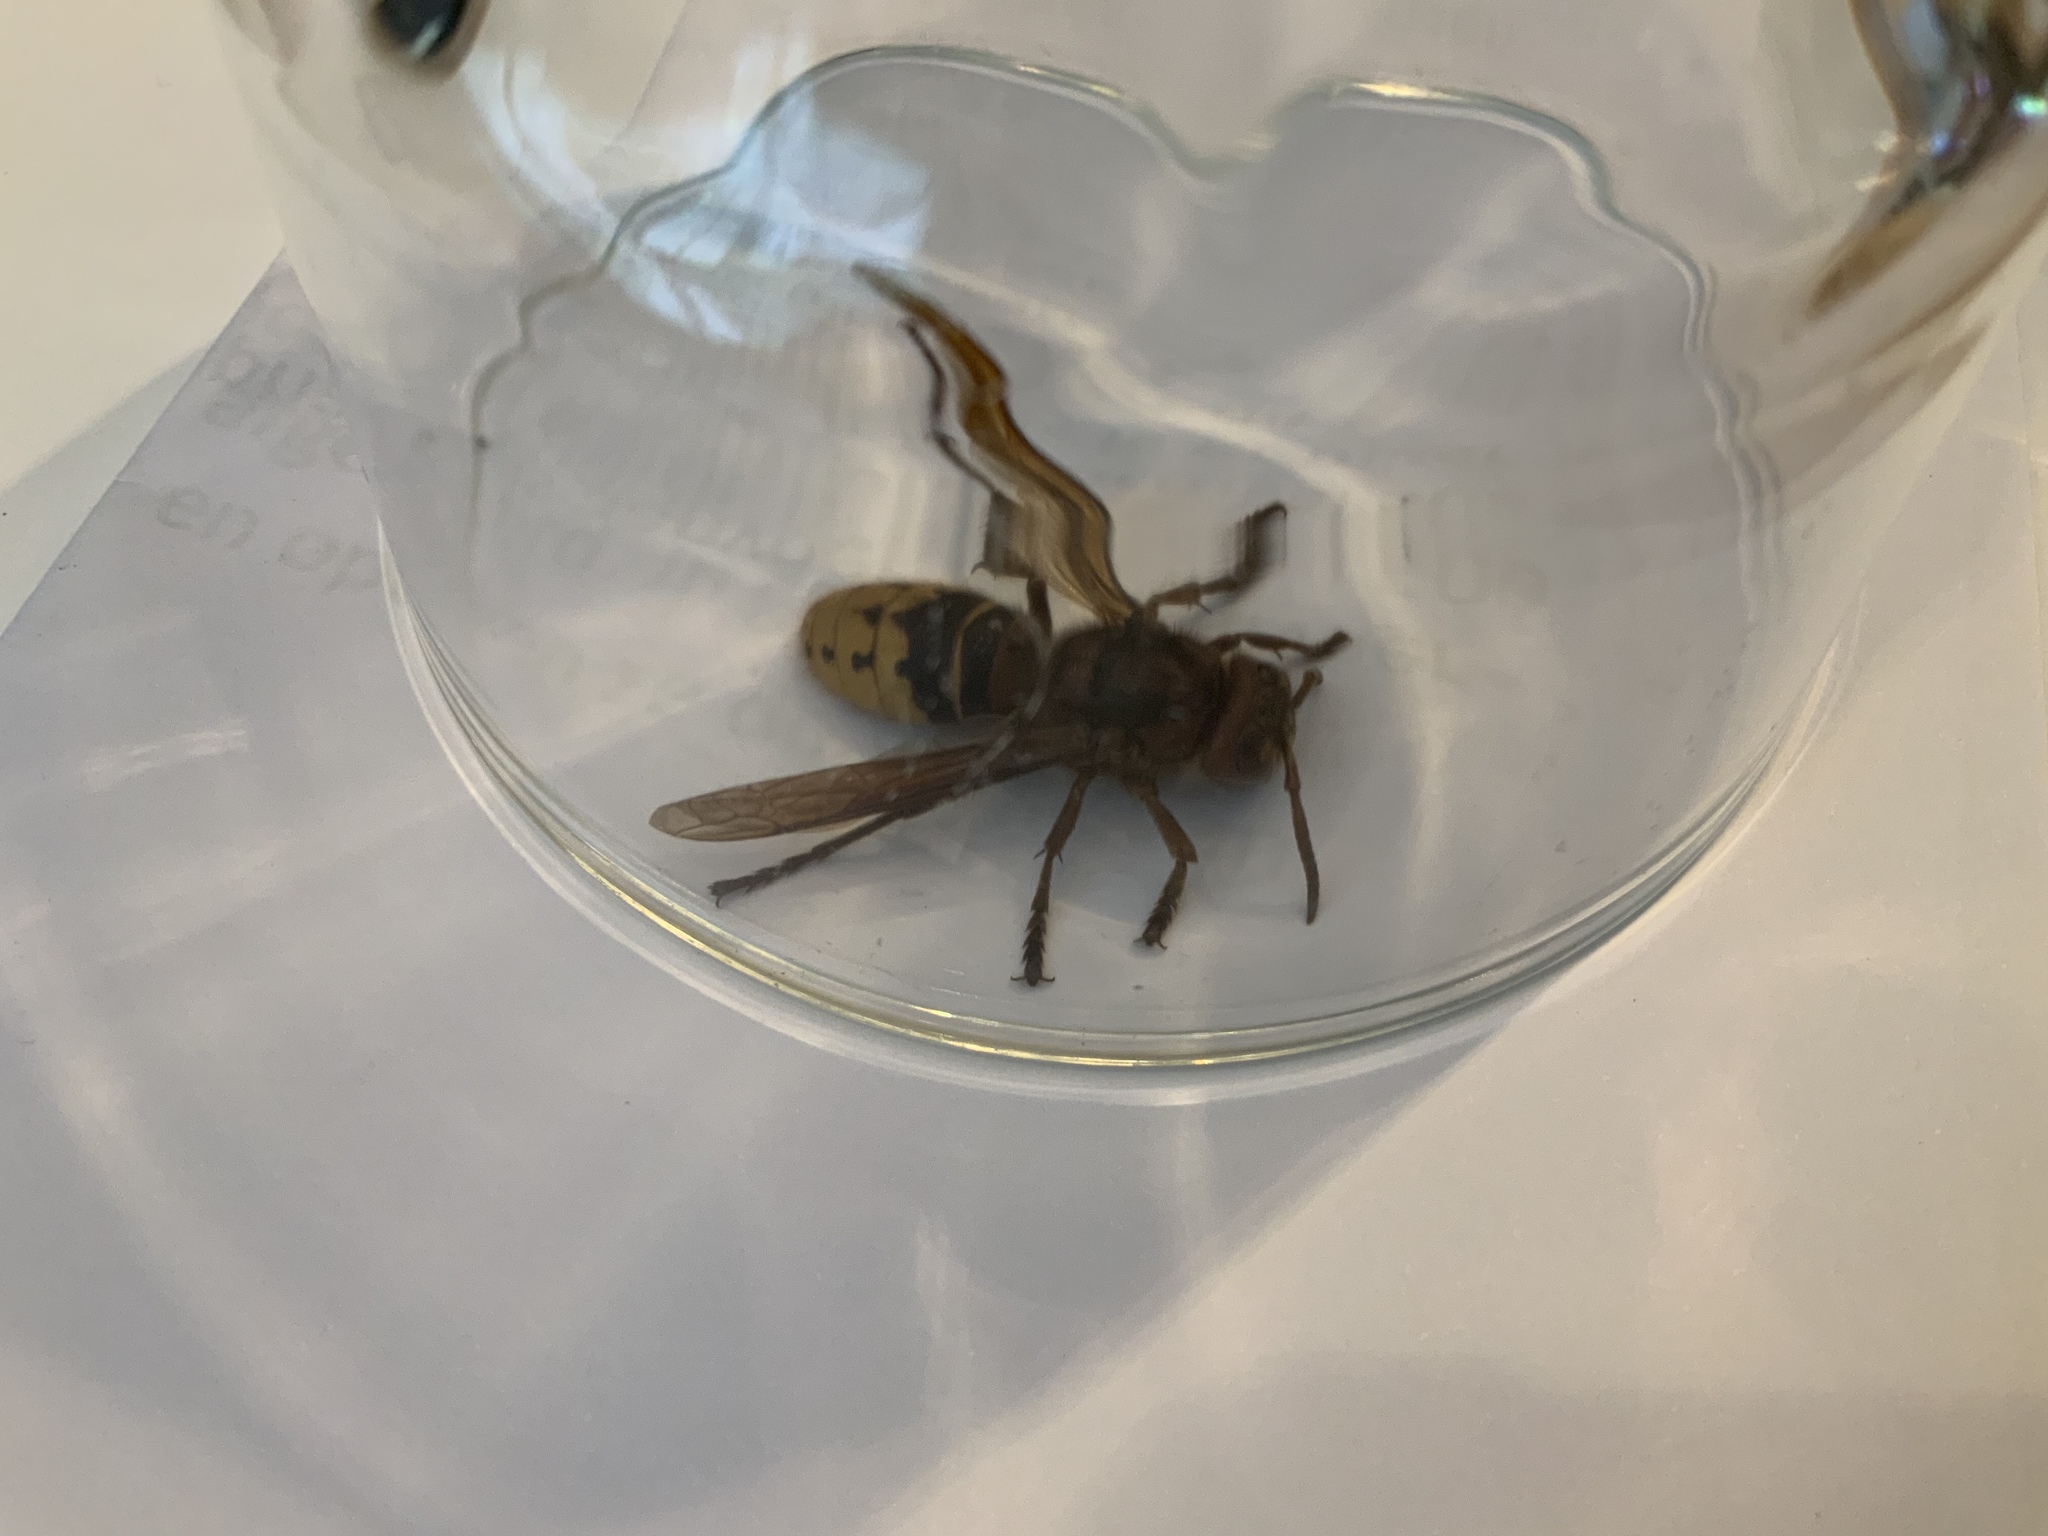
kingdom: Animalia
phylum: Arthropoda
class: Insecta
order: Hymenoptera
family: Vespidae
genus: Vespa
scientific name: Vespa crabro
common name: Hornet
